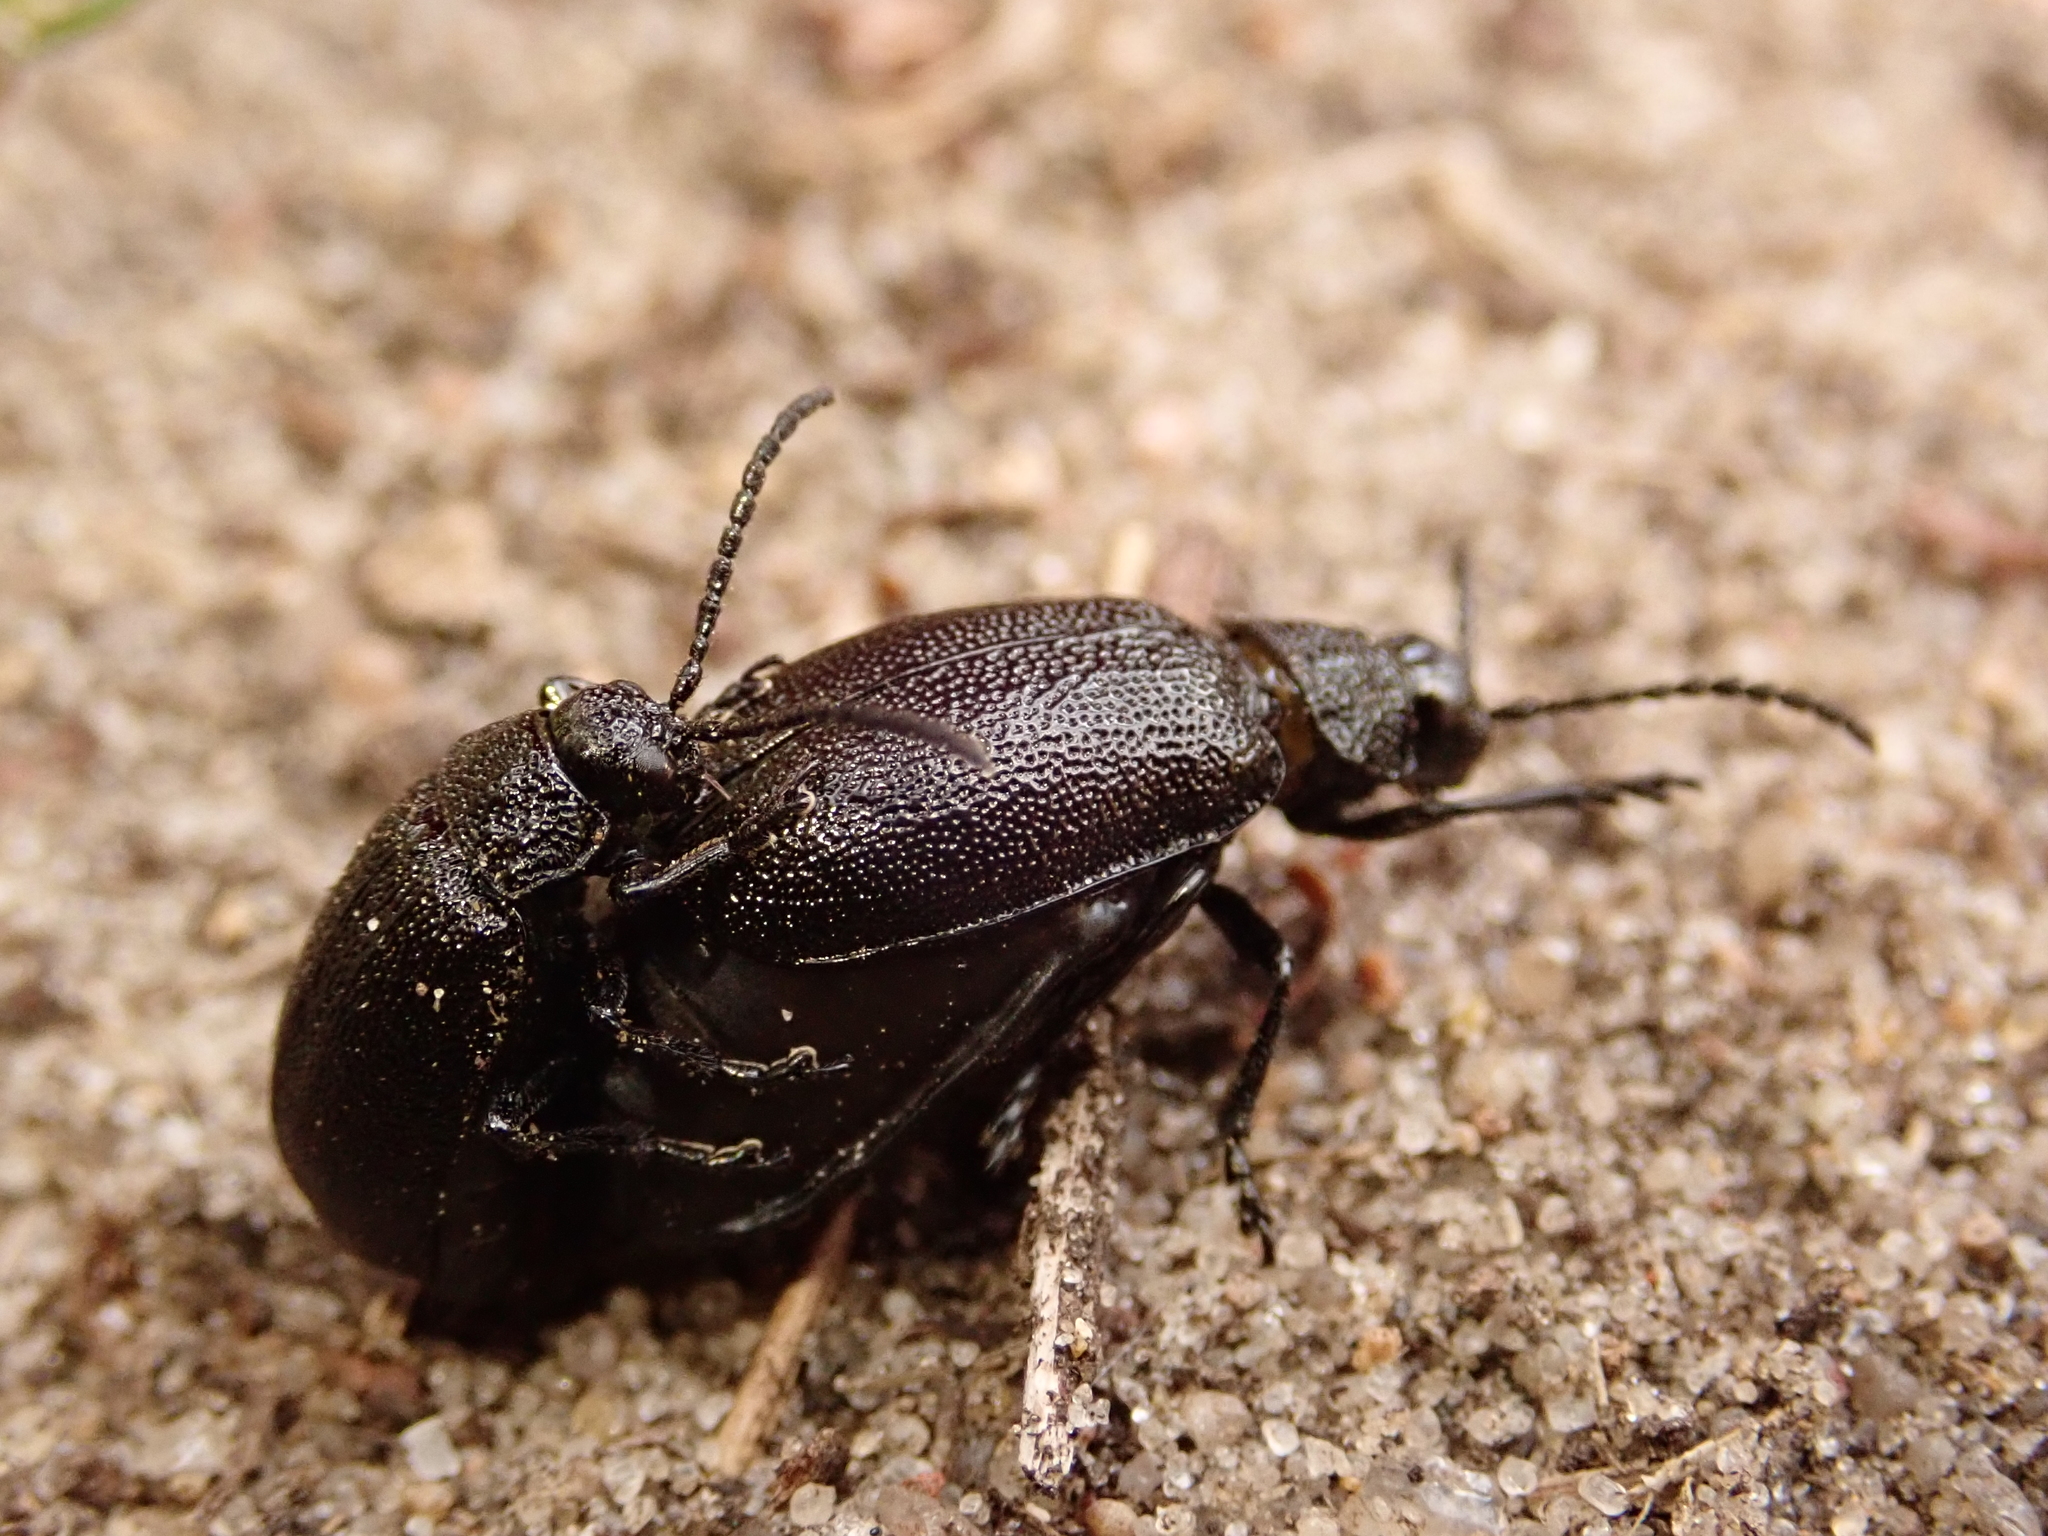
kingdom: Animalia
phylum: Arthropoda
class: Insecta
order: Coleoptera
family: Chrysomelidae
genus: Galeruca
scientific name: Galeruca tanaceti
